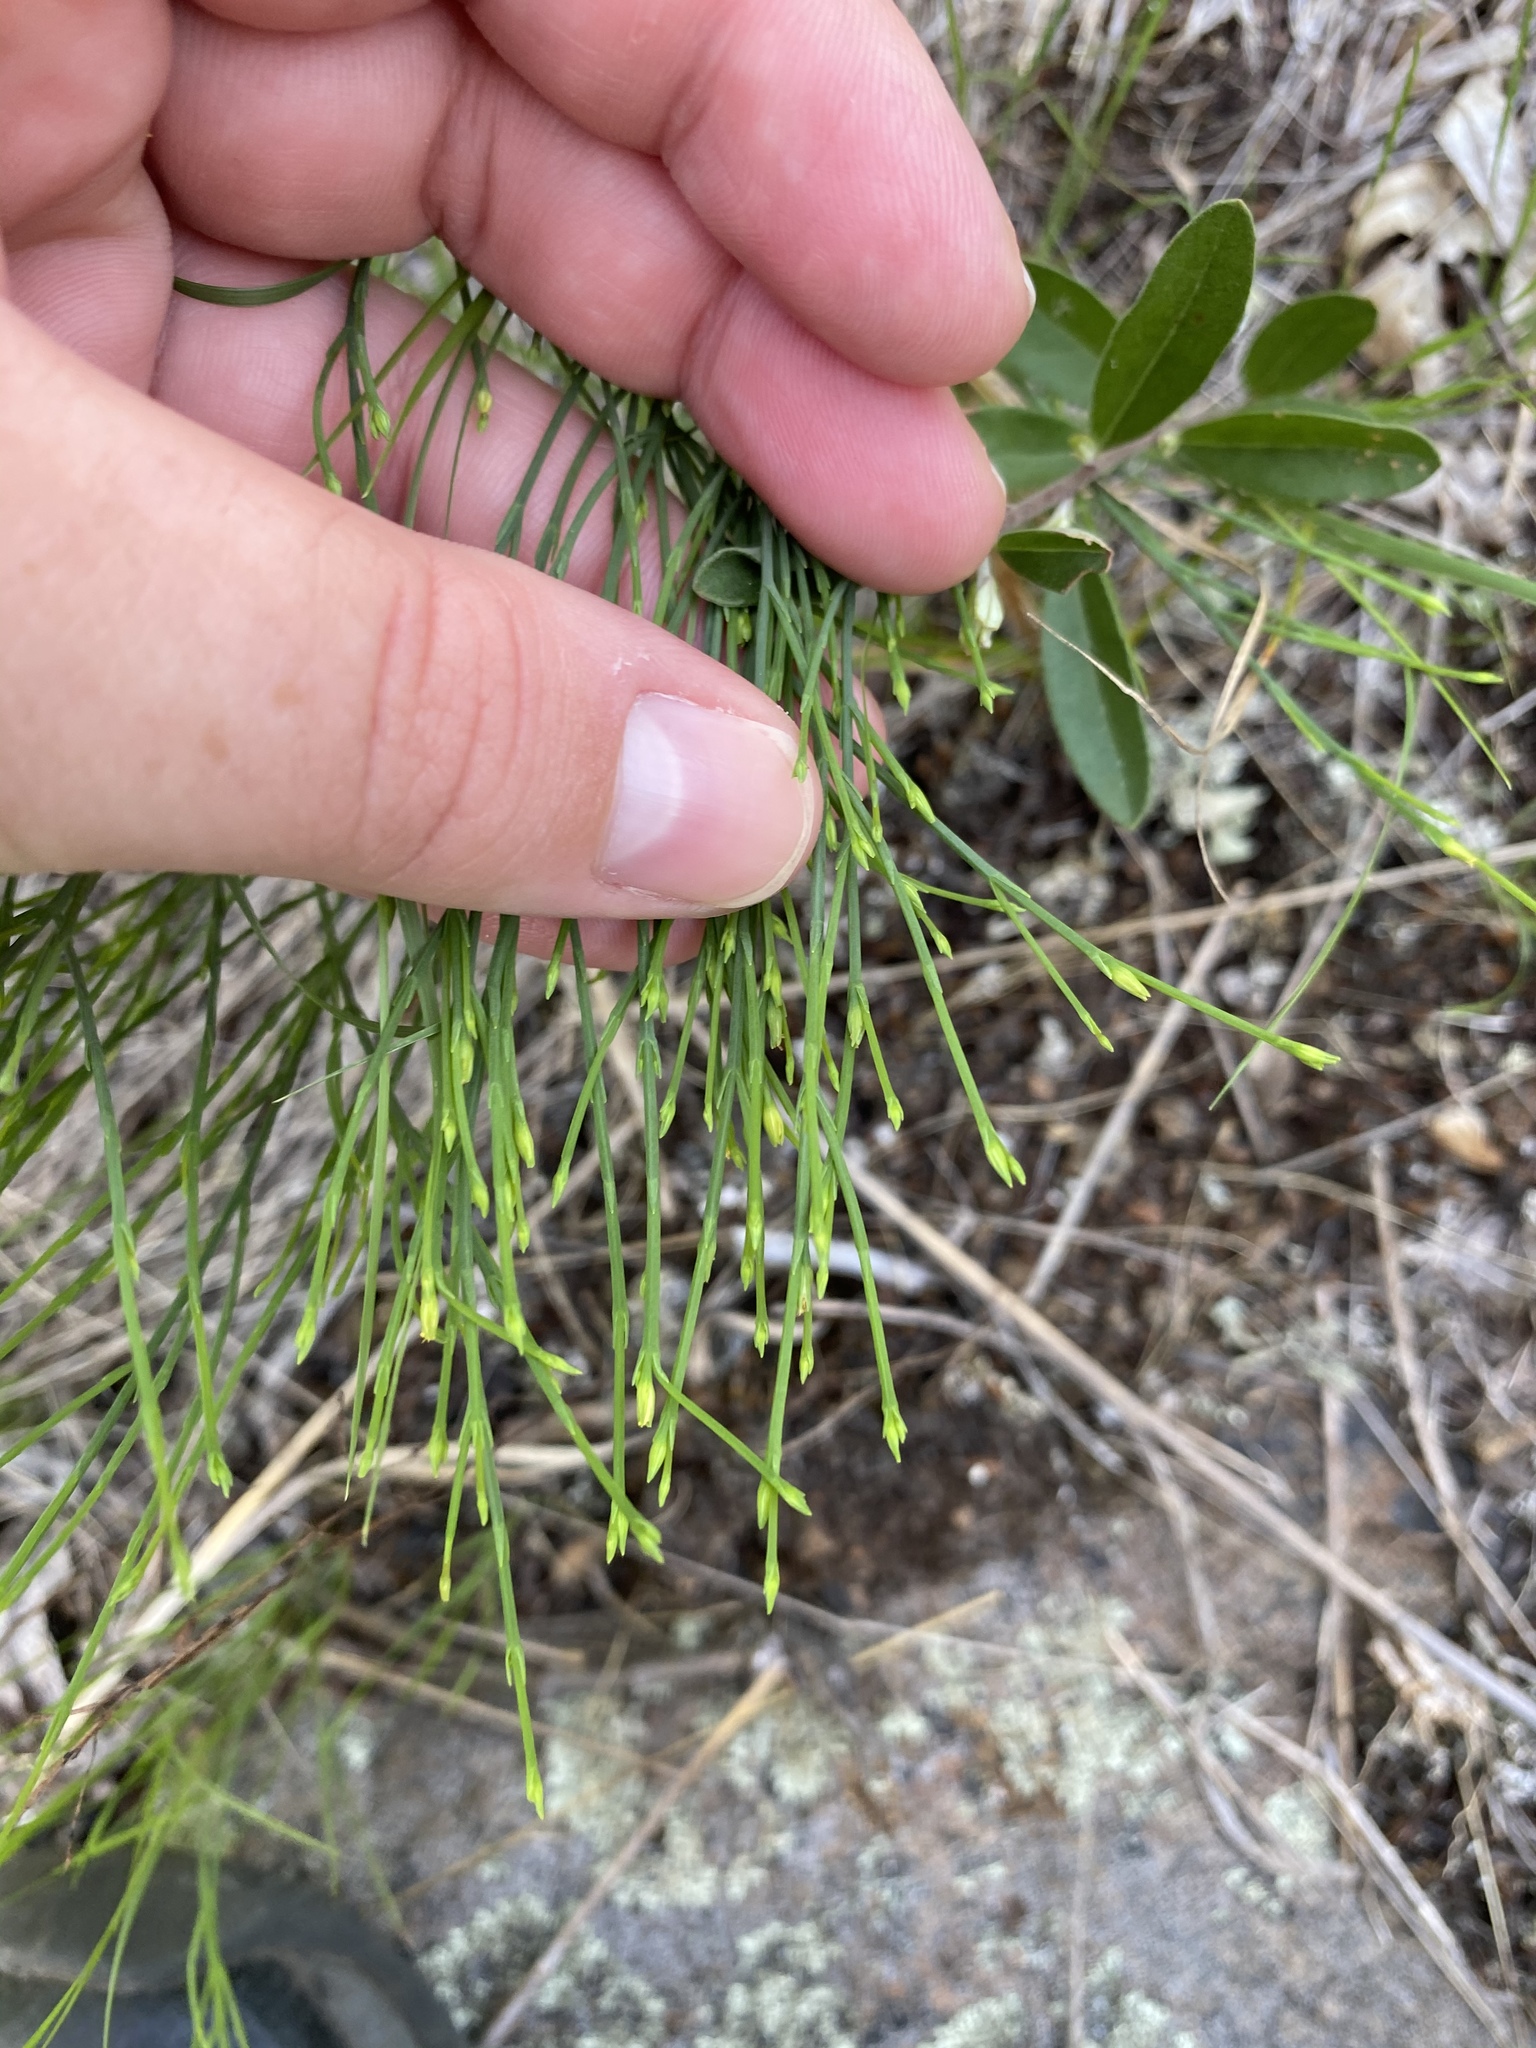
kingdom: Plantae
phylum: Tracheophyta
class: Magnoliopsida
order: Malpighiales
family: Hypericaceae
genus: Hypericum
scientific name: Hypericum gentianoides
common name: Gentian-leaved st. john's-wort
